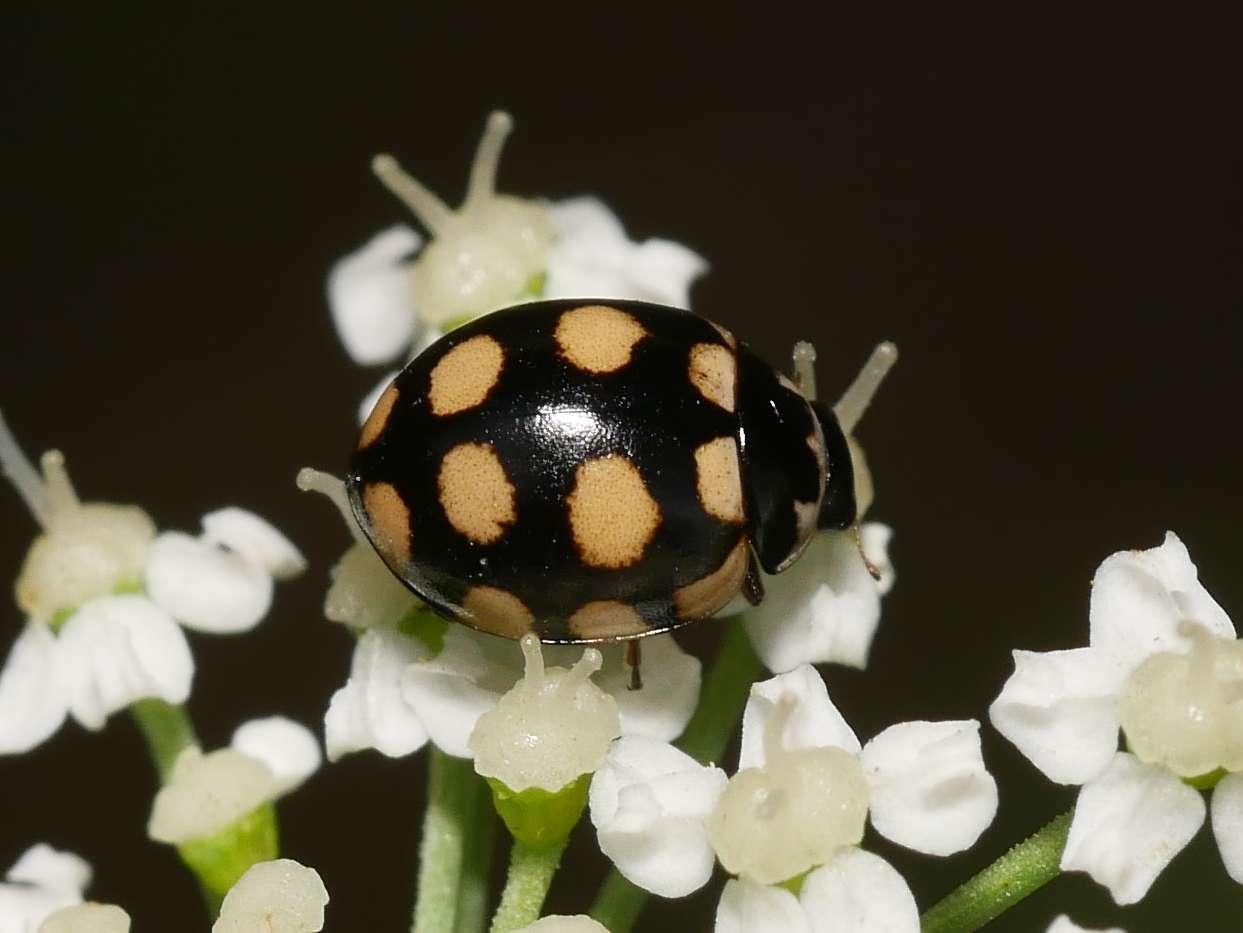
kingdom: Animalia
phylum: Arthropoda
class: Insecta
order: Coleoptera
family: Coccinellidae
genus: Coccinula
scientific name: Coccinula quatuordecimpustulata
